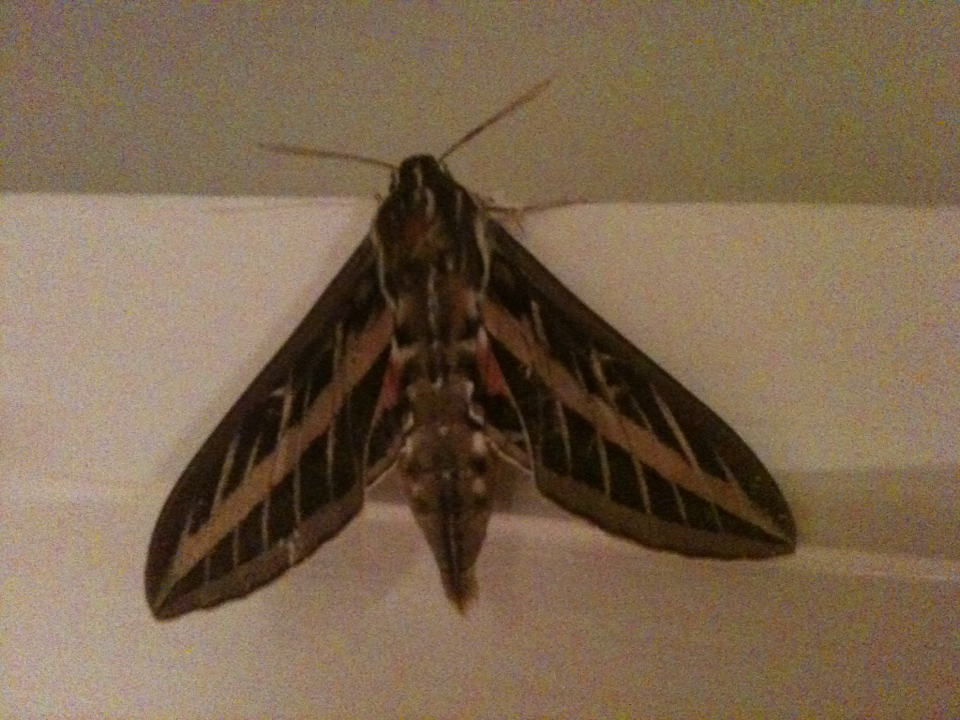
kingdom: Animalia
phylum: Arthropoda
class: Insecta
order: Lepidoptera
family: Sphingidae
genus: Hyles
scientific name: Hyles lineata
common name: White-lined sphinx
